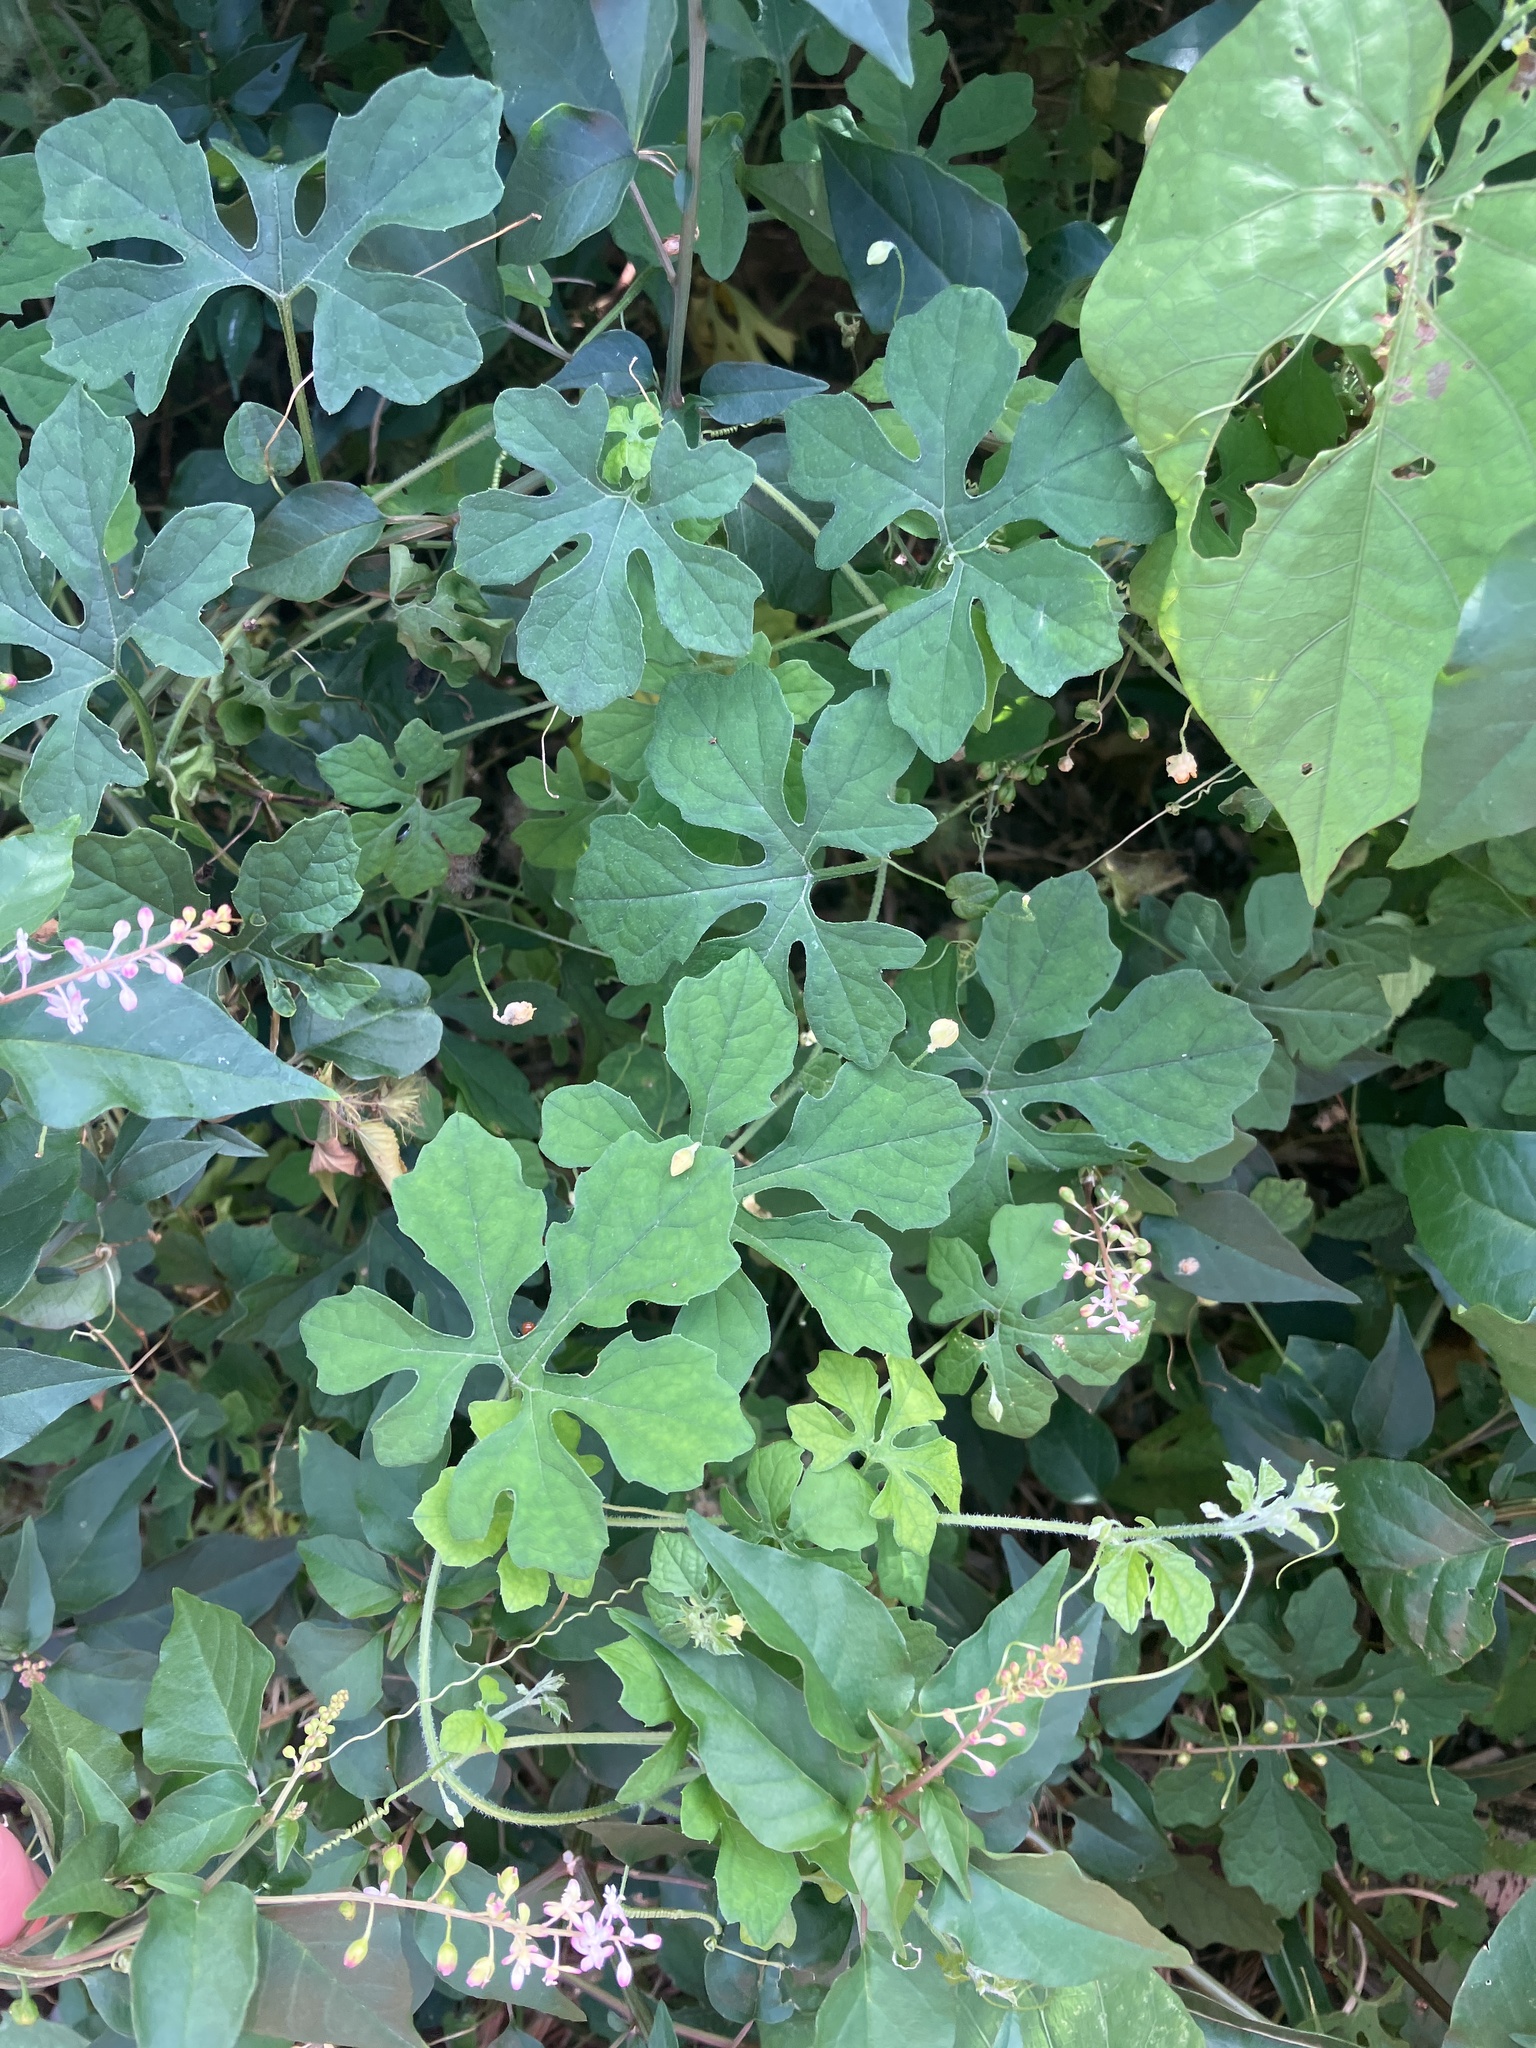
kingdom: Plantae
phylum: Tracheophyta
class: Magnoliopsida
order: Cucurbitales
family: Cucurbitaceae
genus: Momordica
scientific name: Momordica charantia
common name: Balsampear
